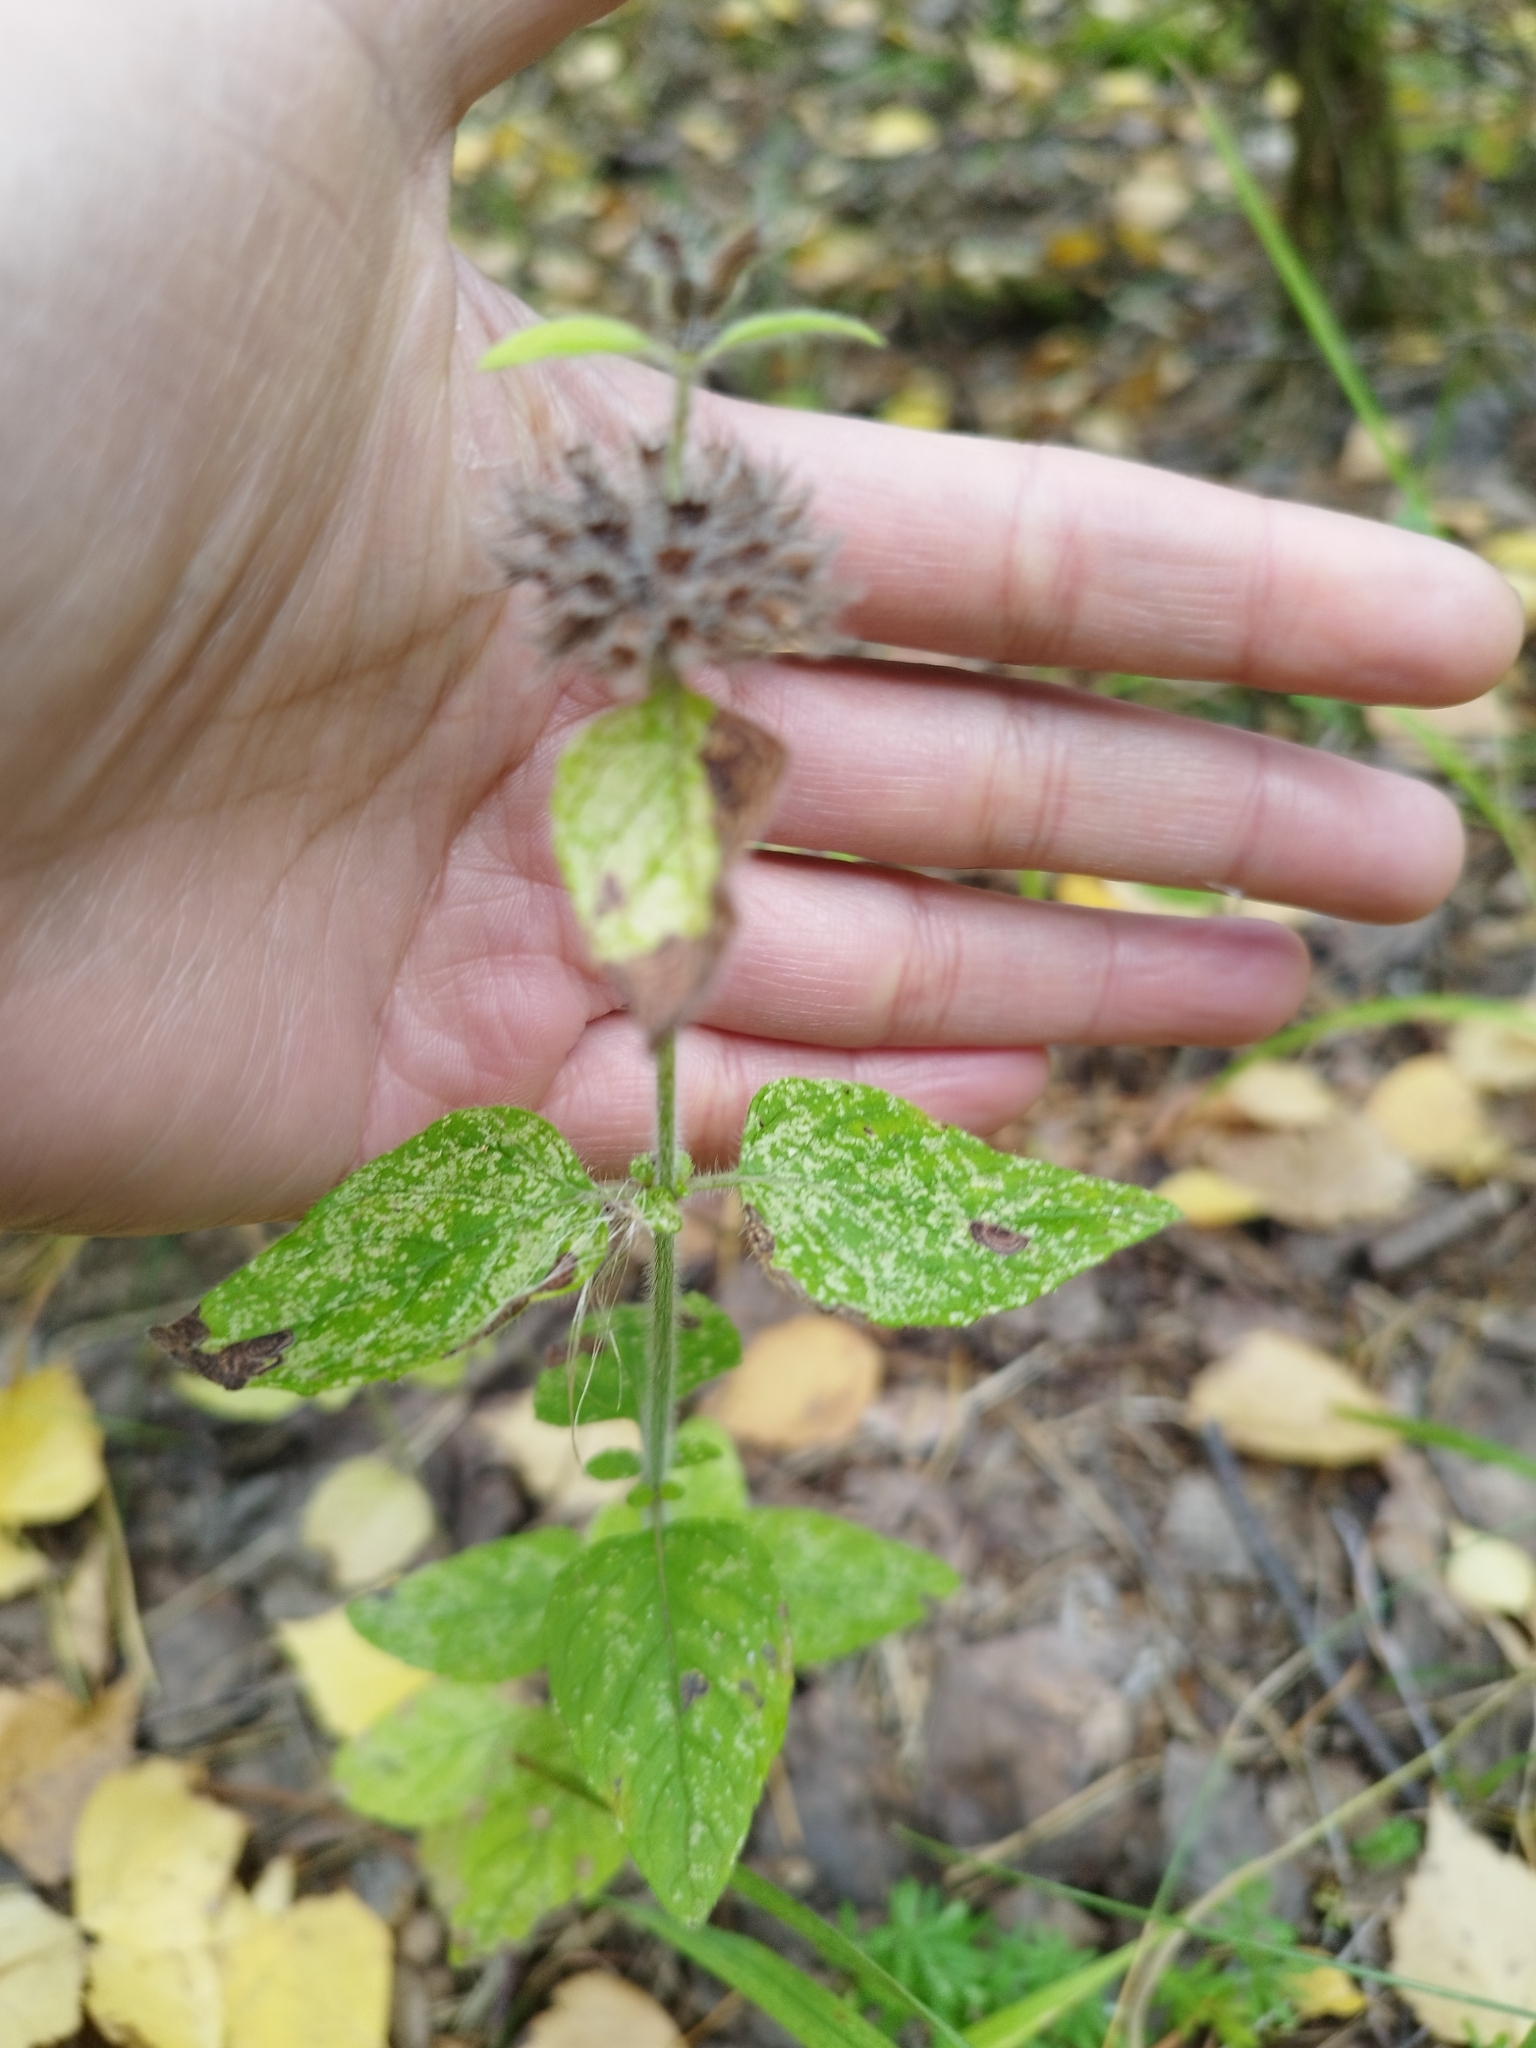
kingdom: Plantae
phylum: Tracheophyta
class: Magnoliopsida
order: Lamiales
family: Lamiaceae
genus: Clinopodium
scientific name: Clinopodium vulgare
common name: Wild basil
